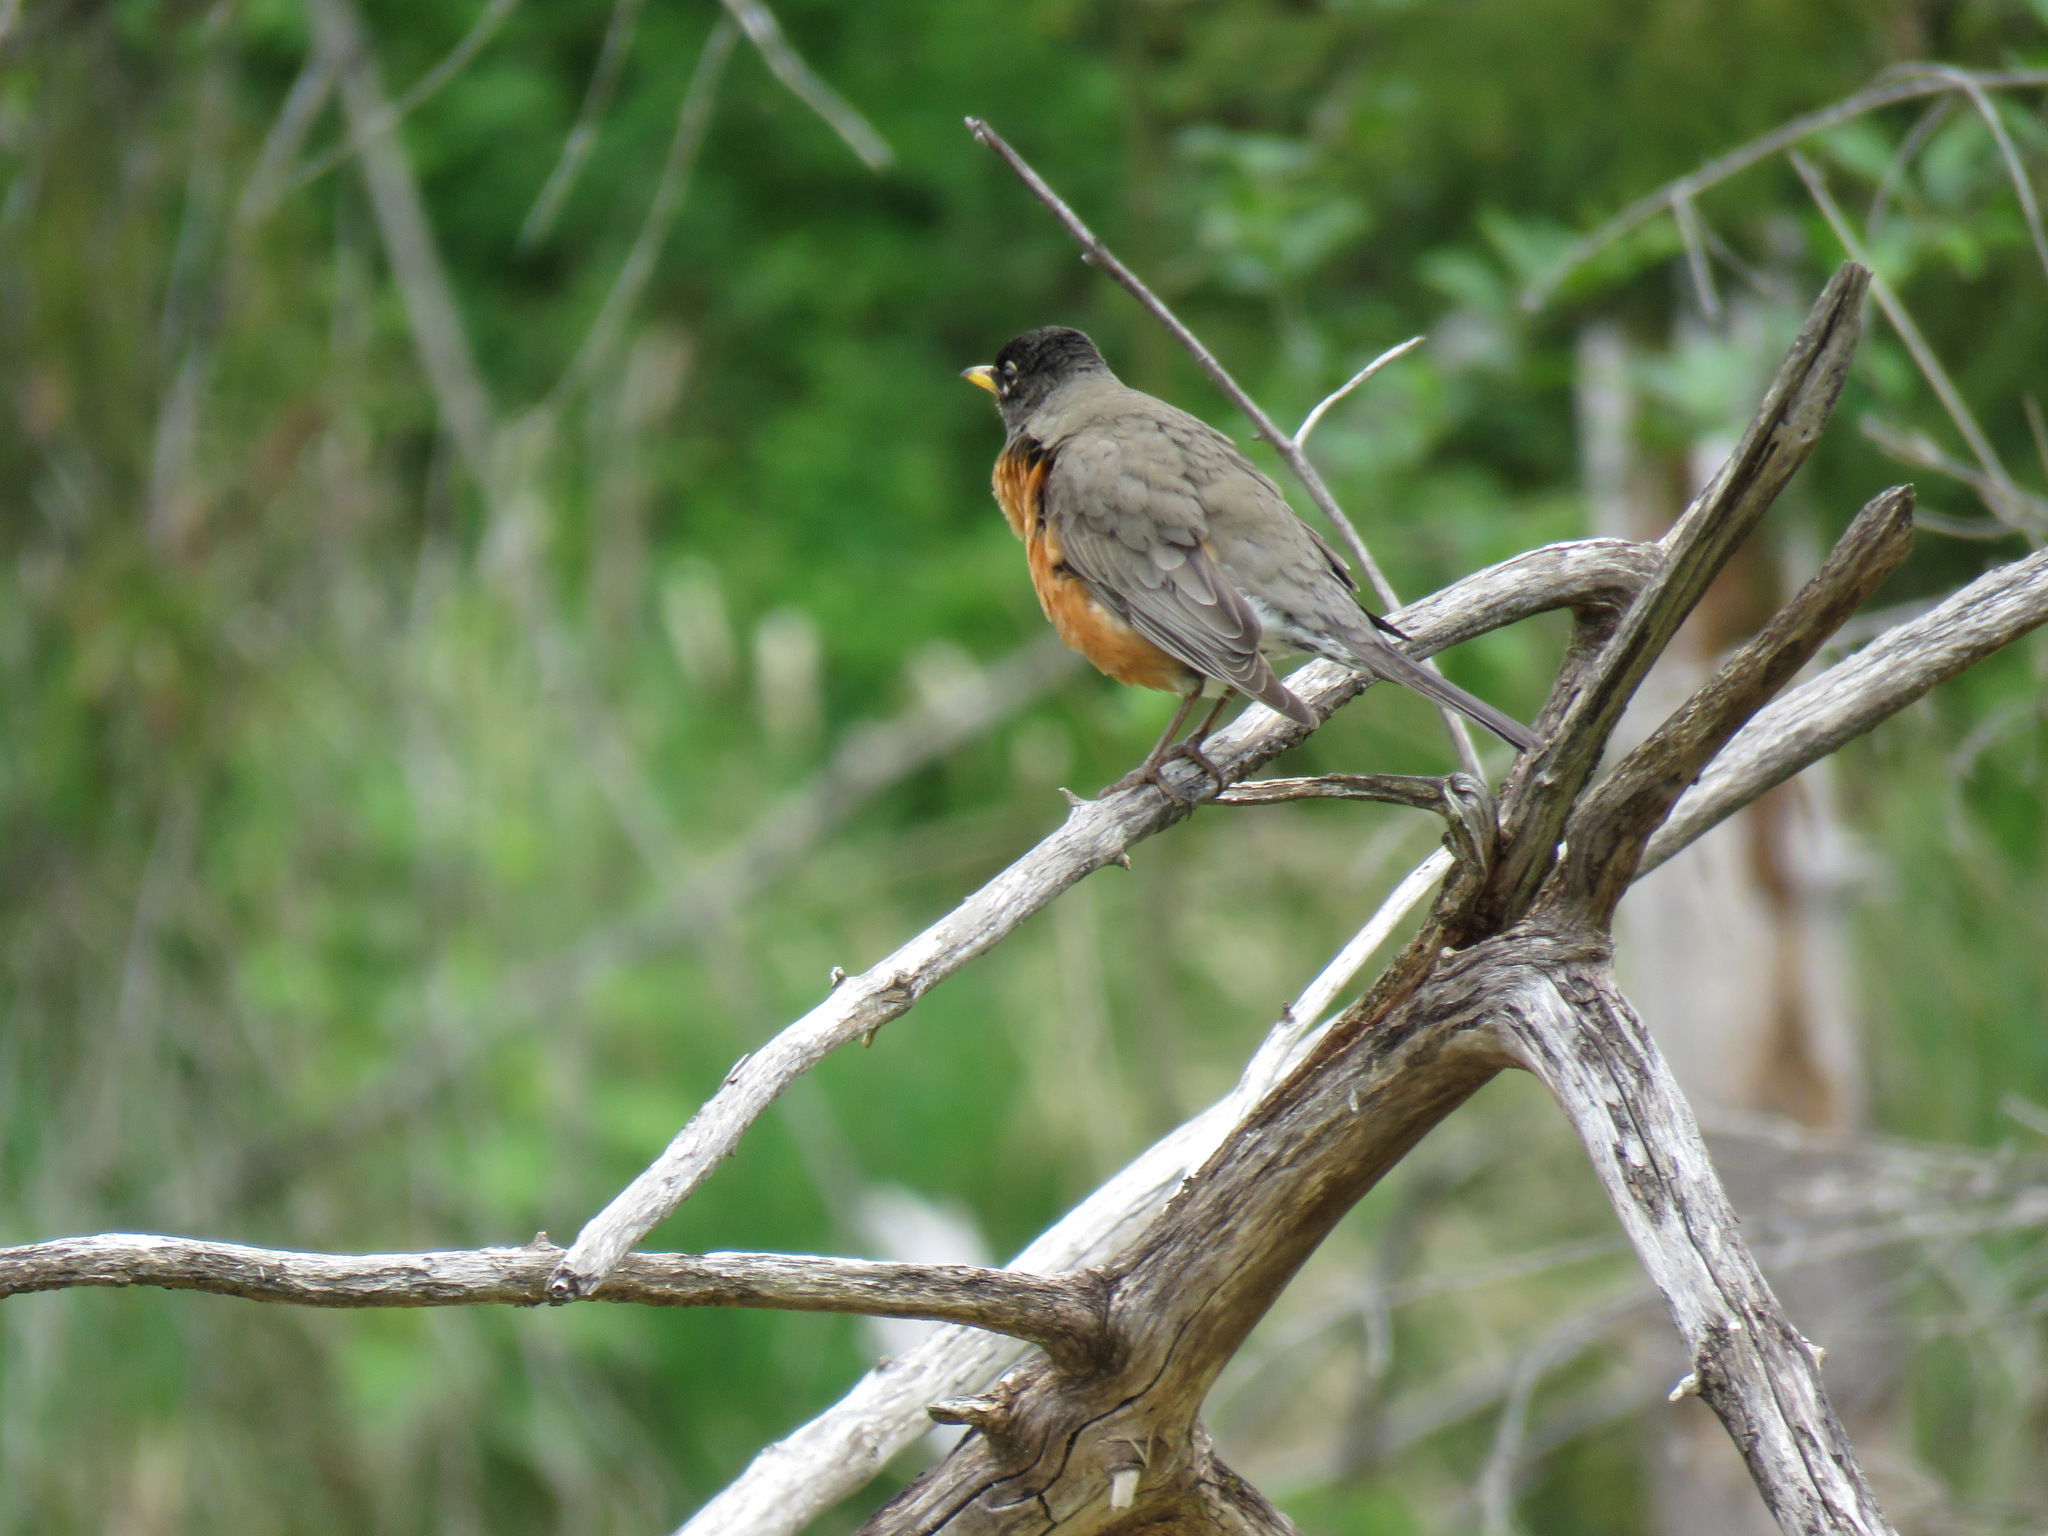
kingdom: Animalia
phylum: Chordata
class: Aves
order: Passeriformes
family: Turdidae
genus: Turdus
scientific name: Turdus migratorius
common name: American robin
